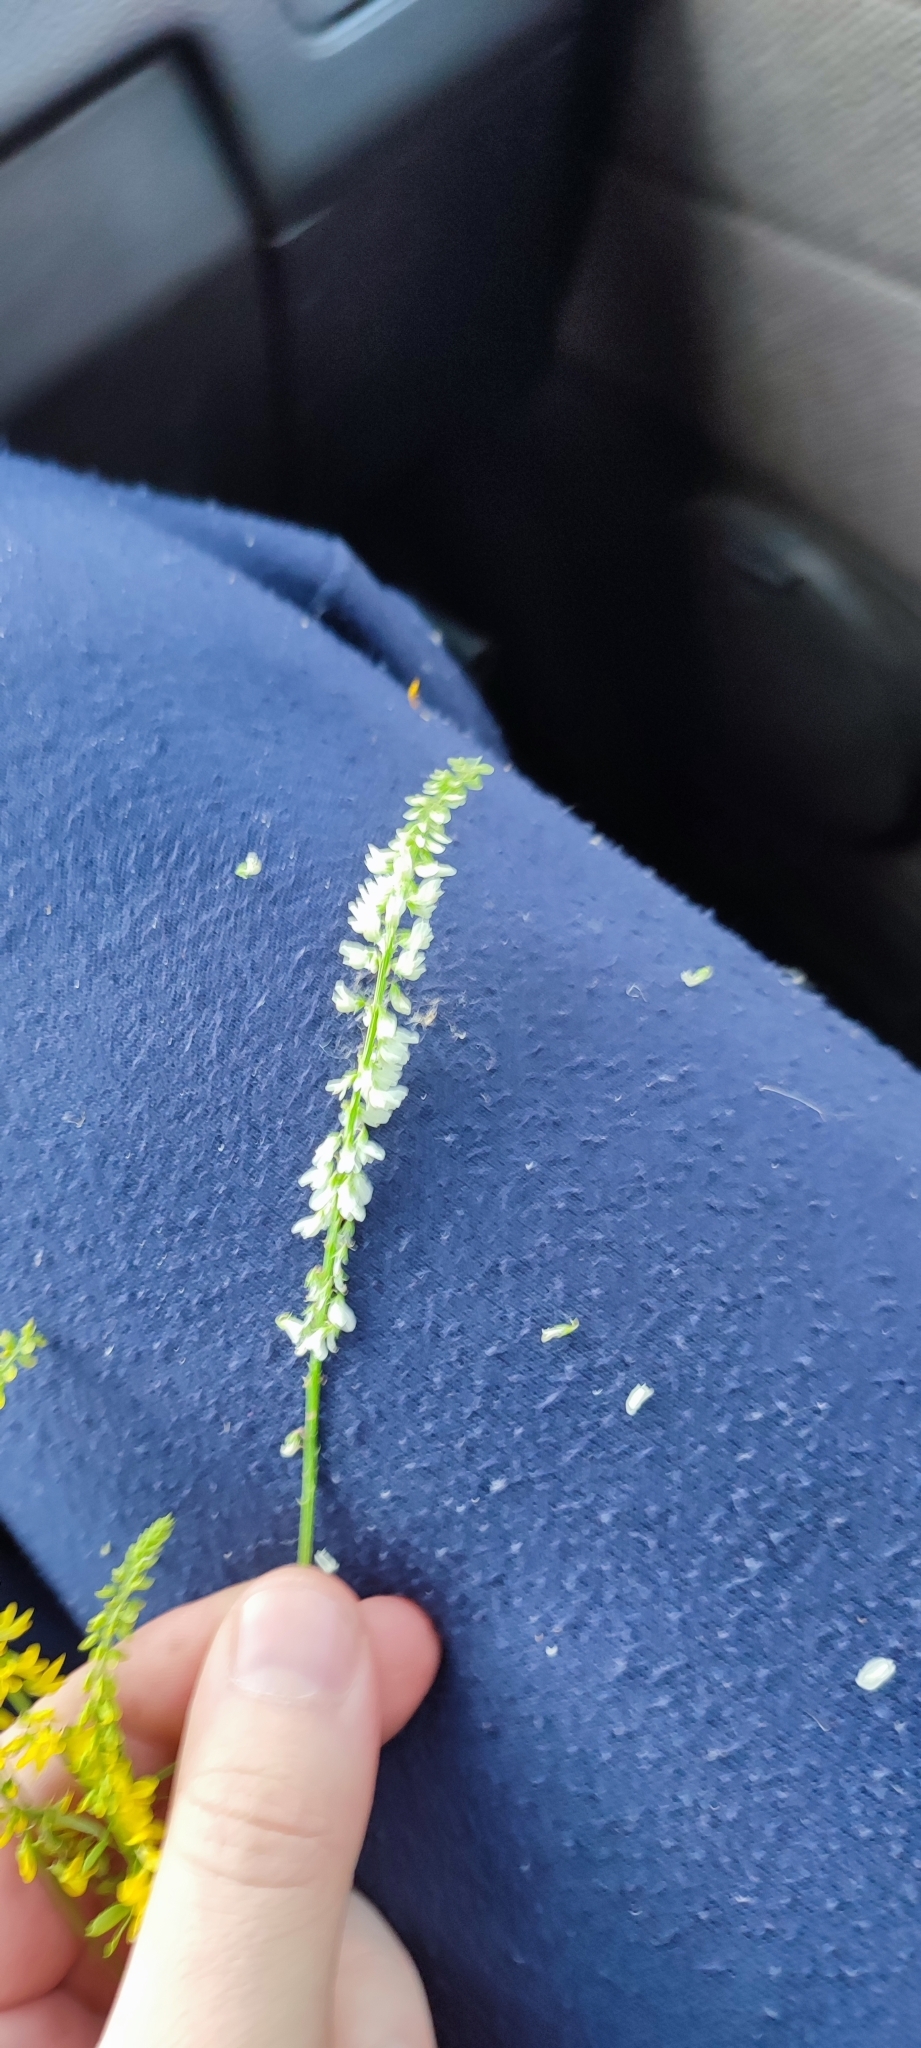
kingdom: Plantae
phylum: Tracheophyta
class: Magnoliopsida
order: Fabales
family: Fabaceae
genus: Melilotus
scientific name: Melilotus albus
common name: White melilot
